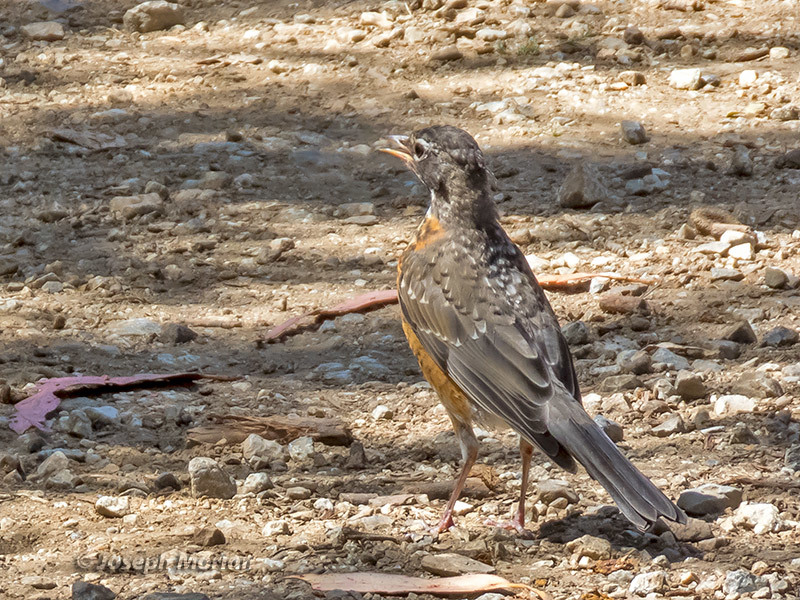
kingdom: Animalia
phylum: Chordata
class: Aves
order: Passeriformes
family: Turdidae
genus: Turdus
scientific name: Turdus migratorius
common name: American robin
